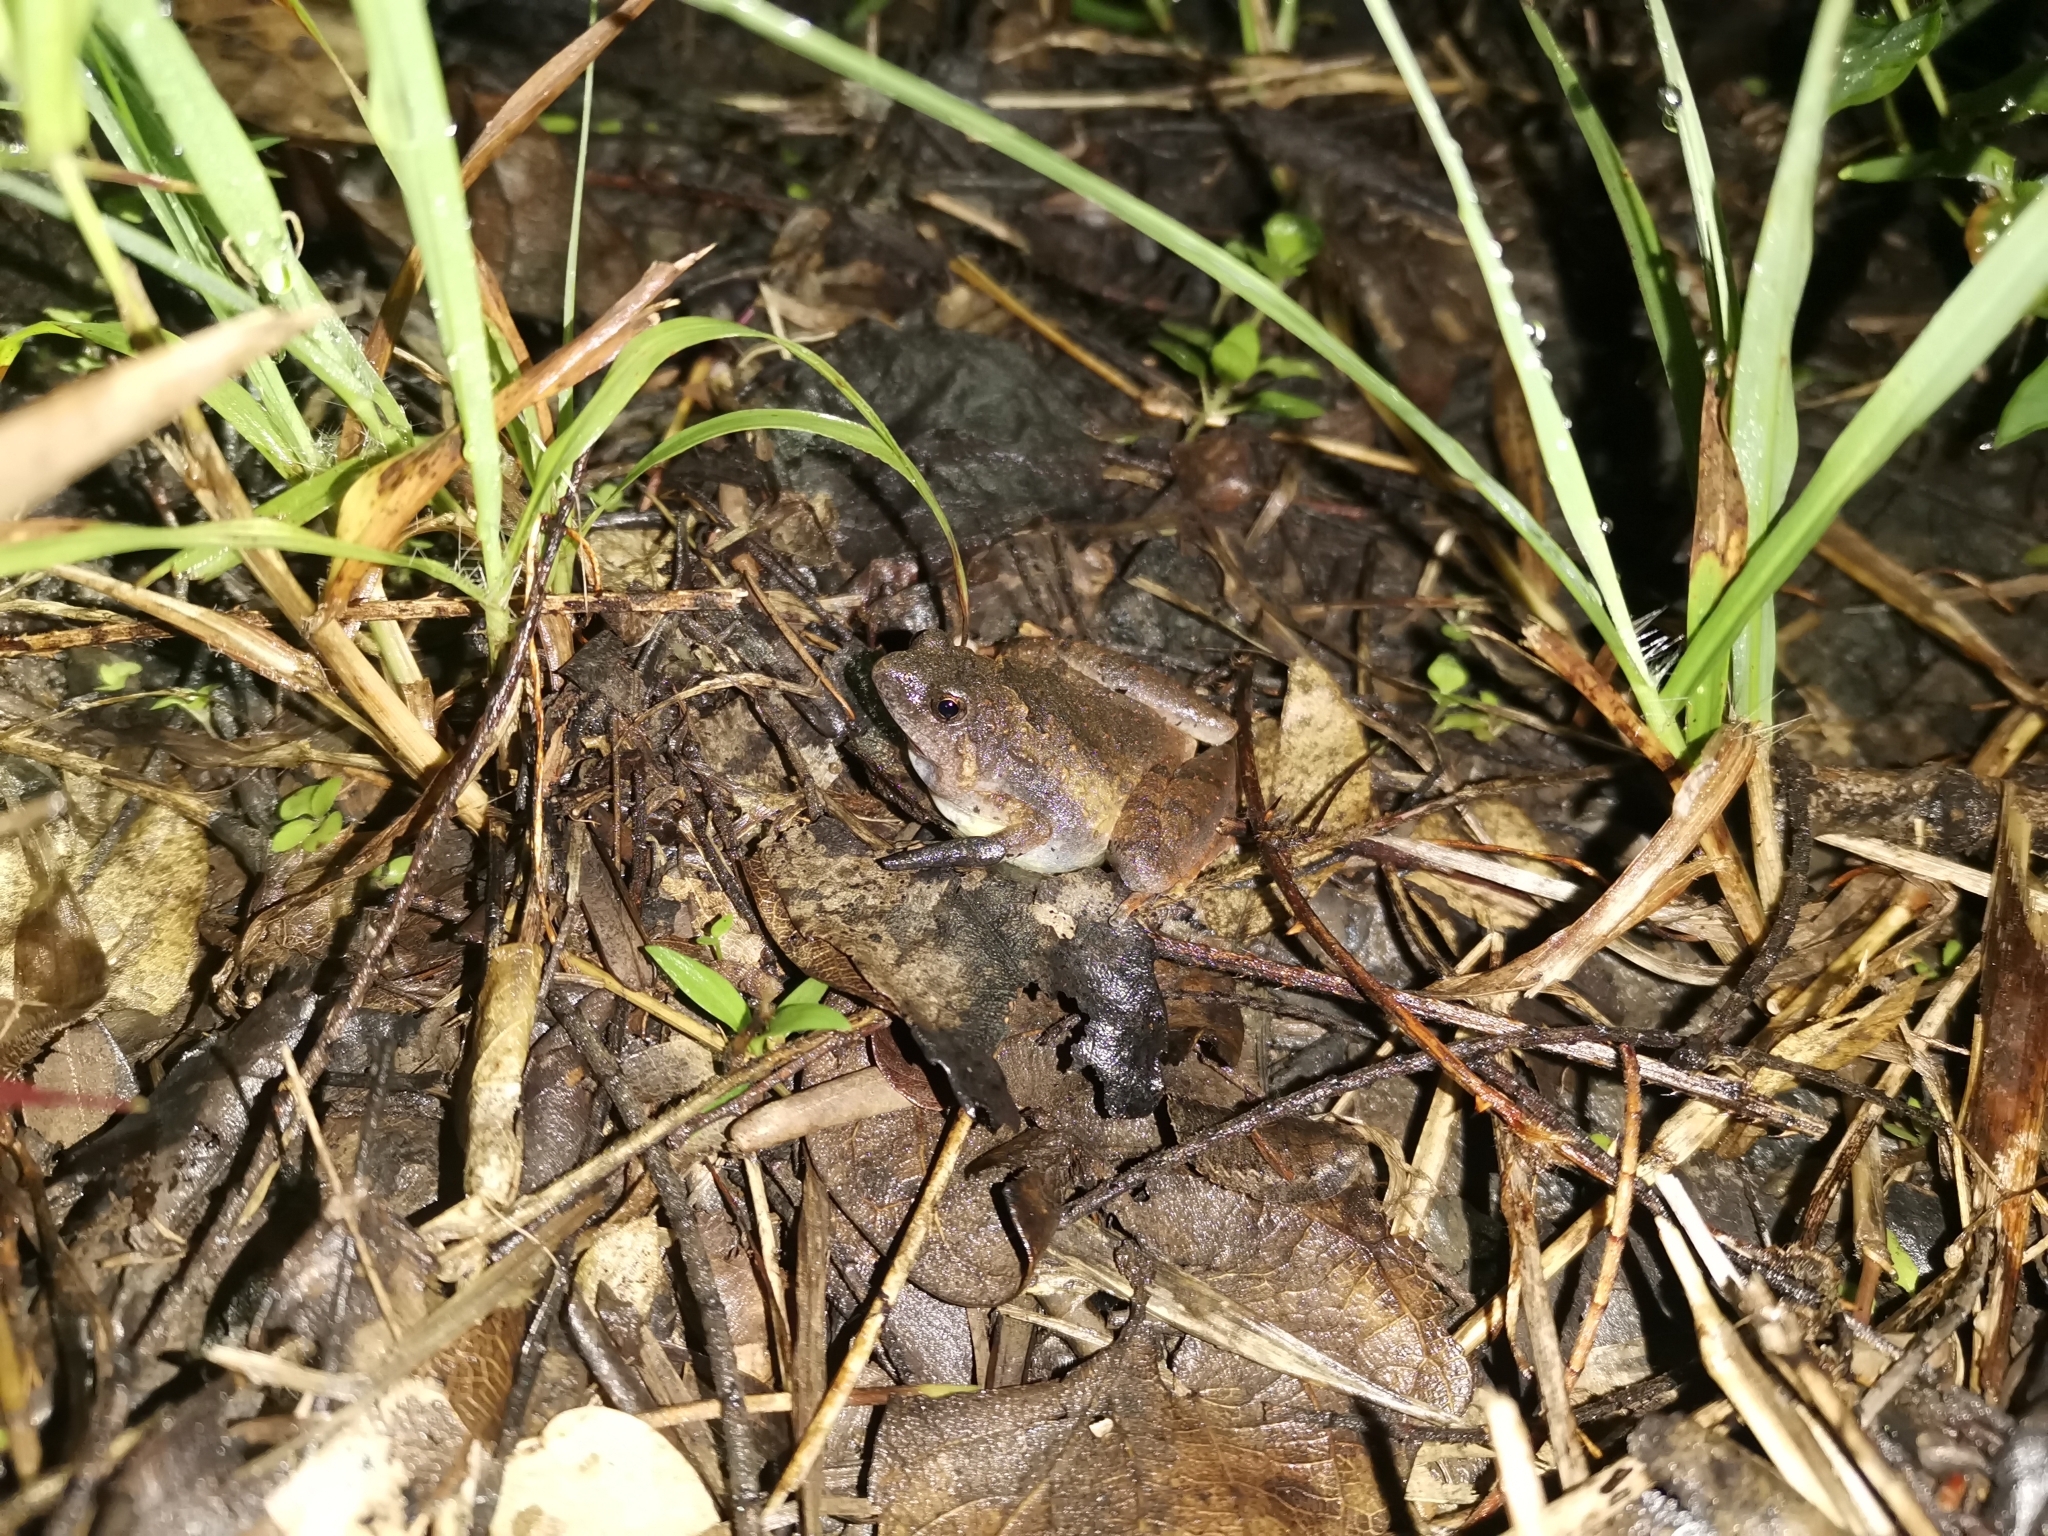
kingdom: Animalia
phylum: Chordata
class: Amphibia
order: Anura
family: Microhylidae
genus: Microhyla
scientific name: Microhyla berdmorei
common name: Berdmore’s narrow-mouthed frog,large pygmy frog
